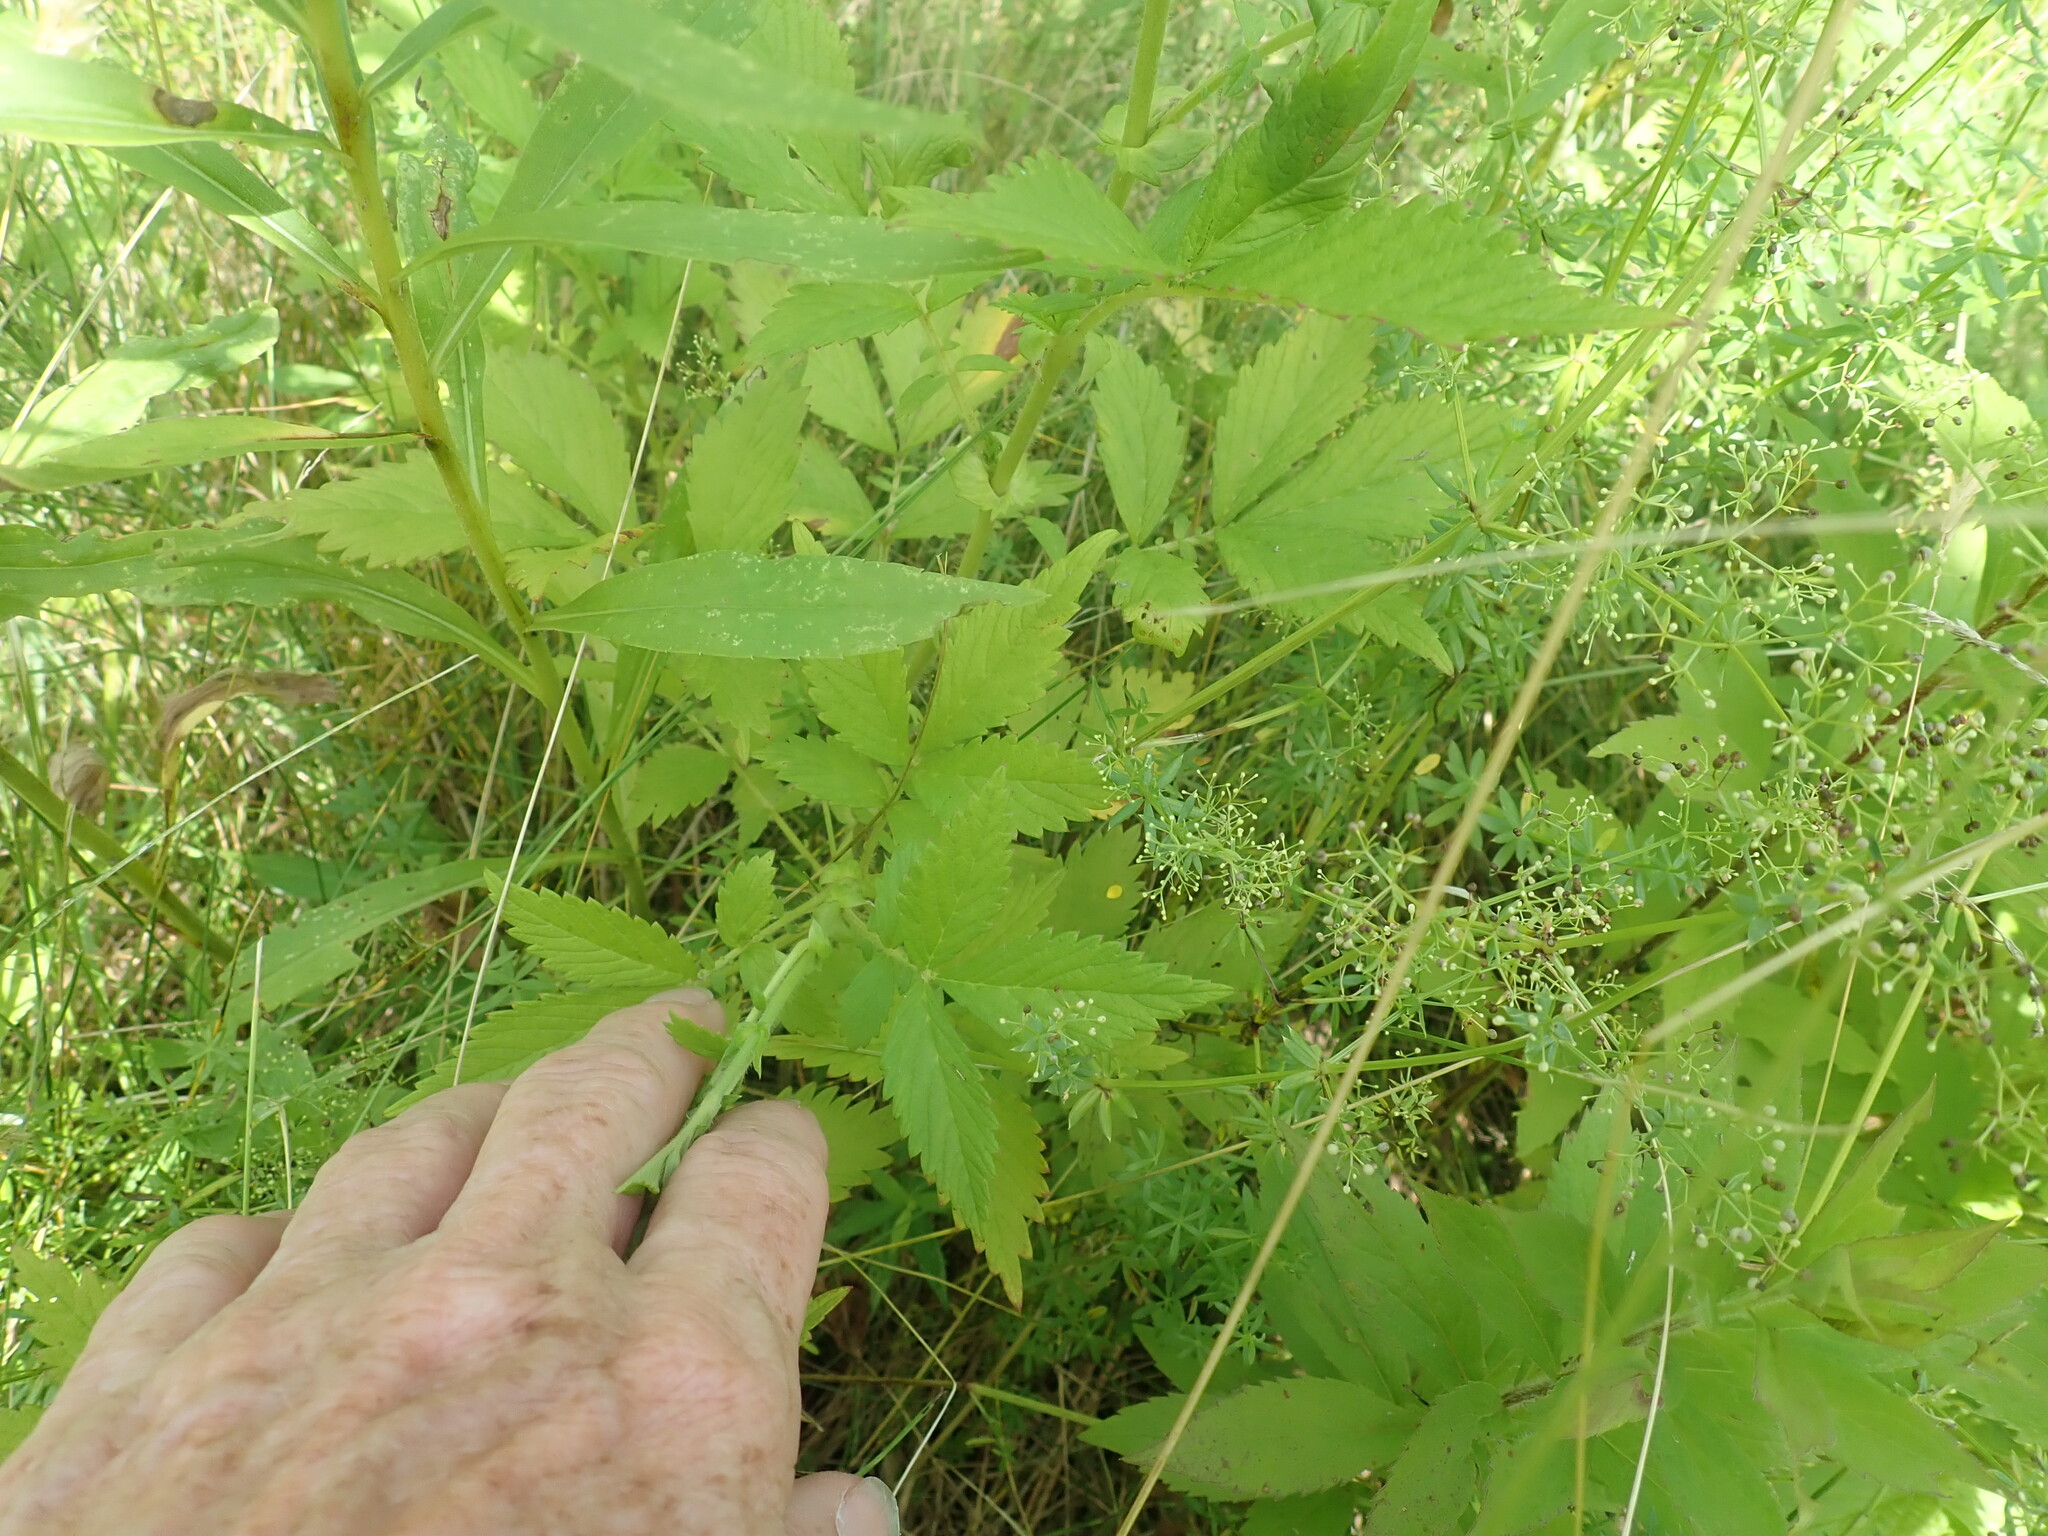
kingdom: Plantae
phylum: Tracheophyta
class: Magnoliopsida
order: Rosales
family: Rosaceae
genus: Agrimonia
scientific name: Agrimonia
